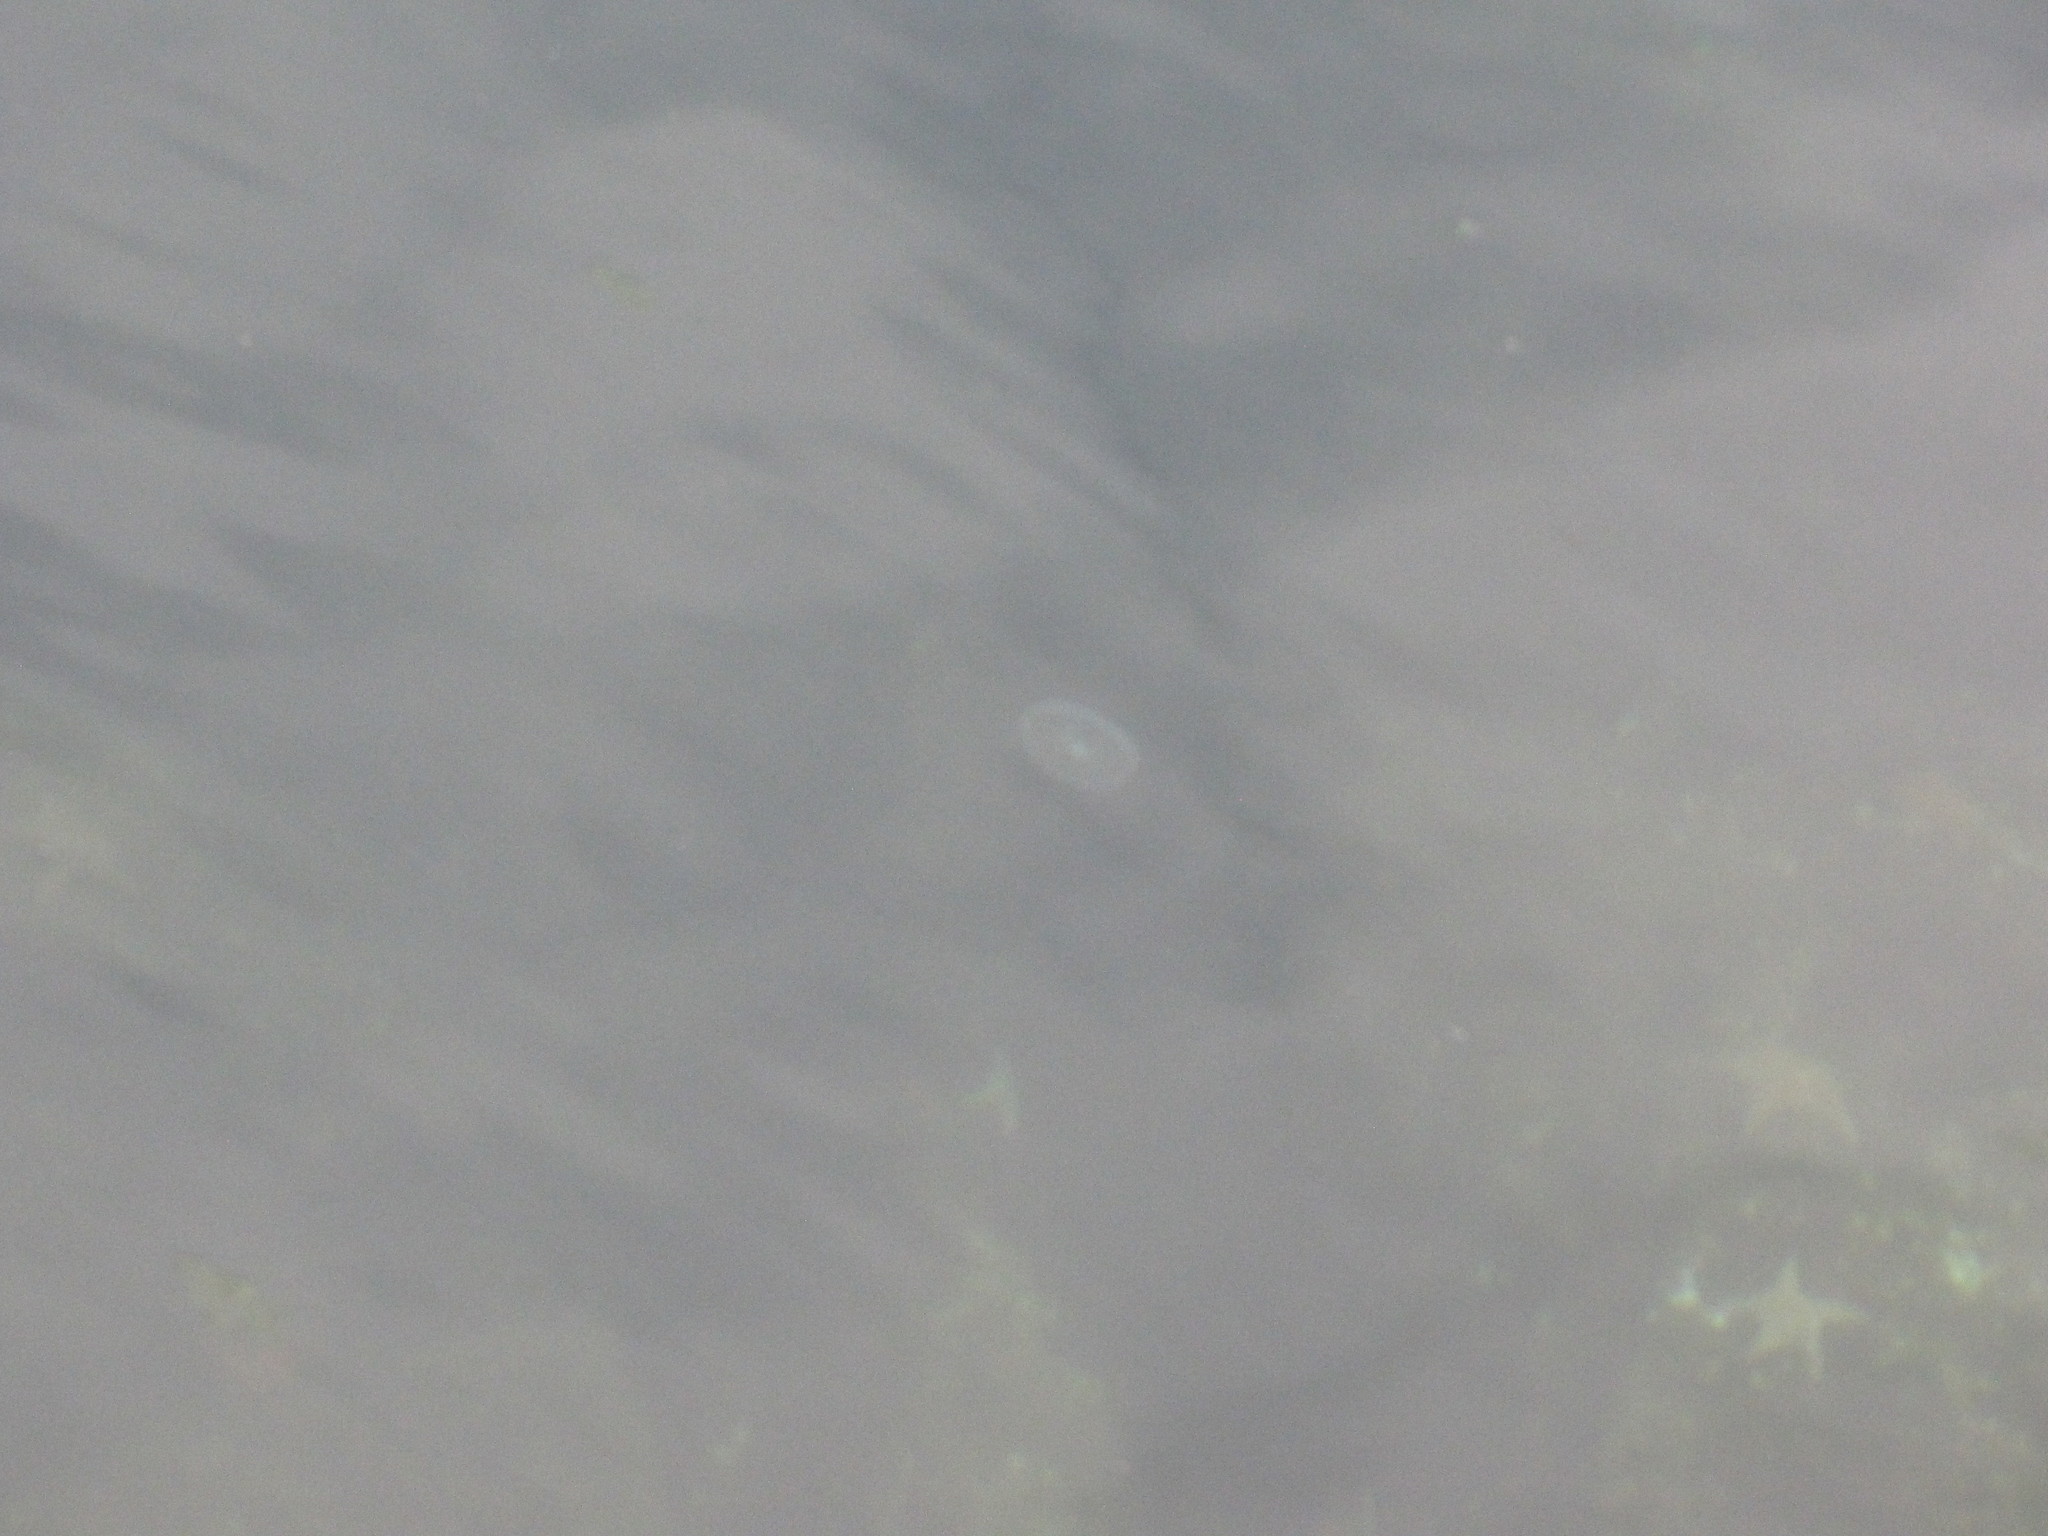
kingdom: Animalia
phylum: Cnidaria
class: Hydrozoa
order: Leptothecata
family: Aequoreidae
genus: Aequorea
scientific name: Aequorea victoria
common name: Water jellyfish
